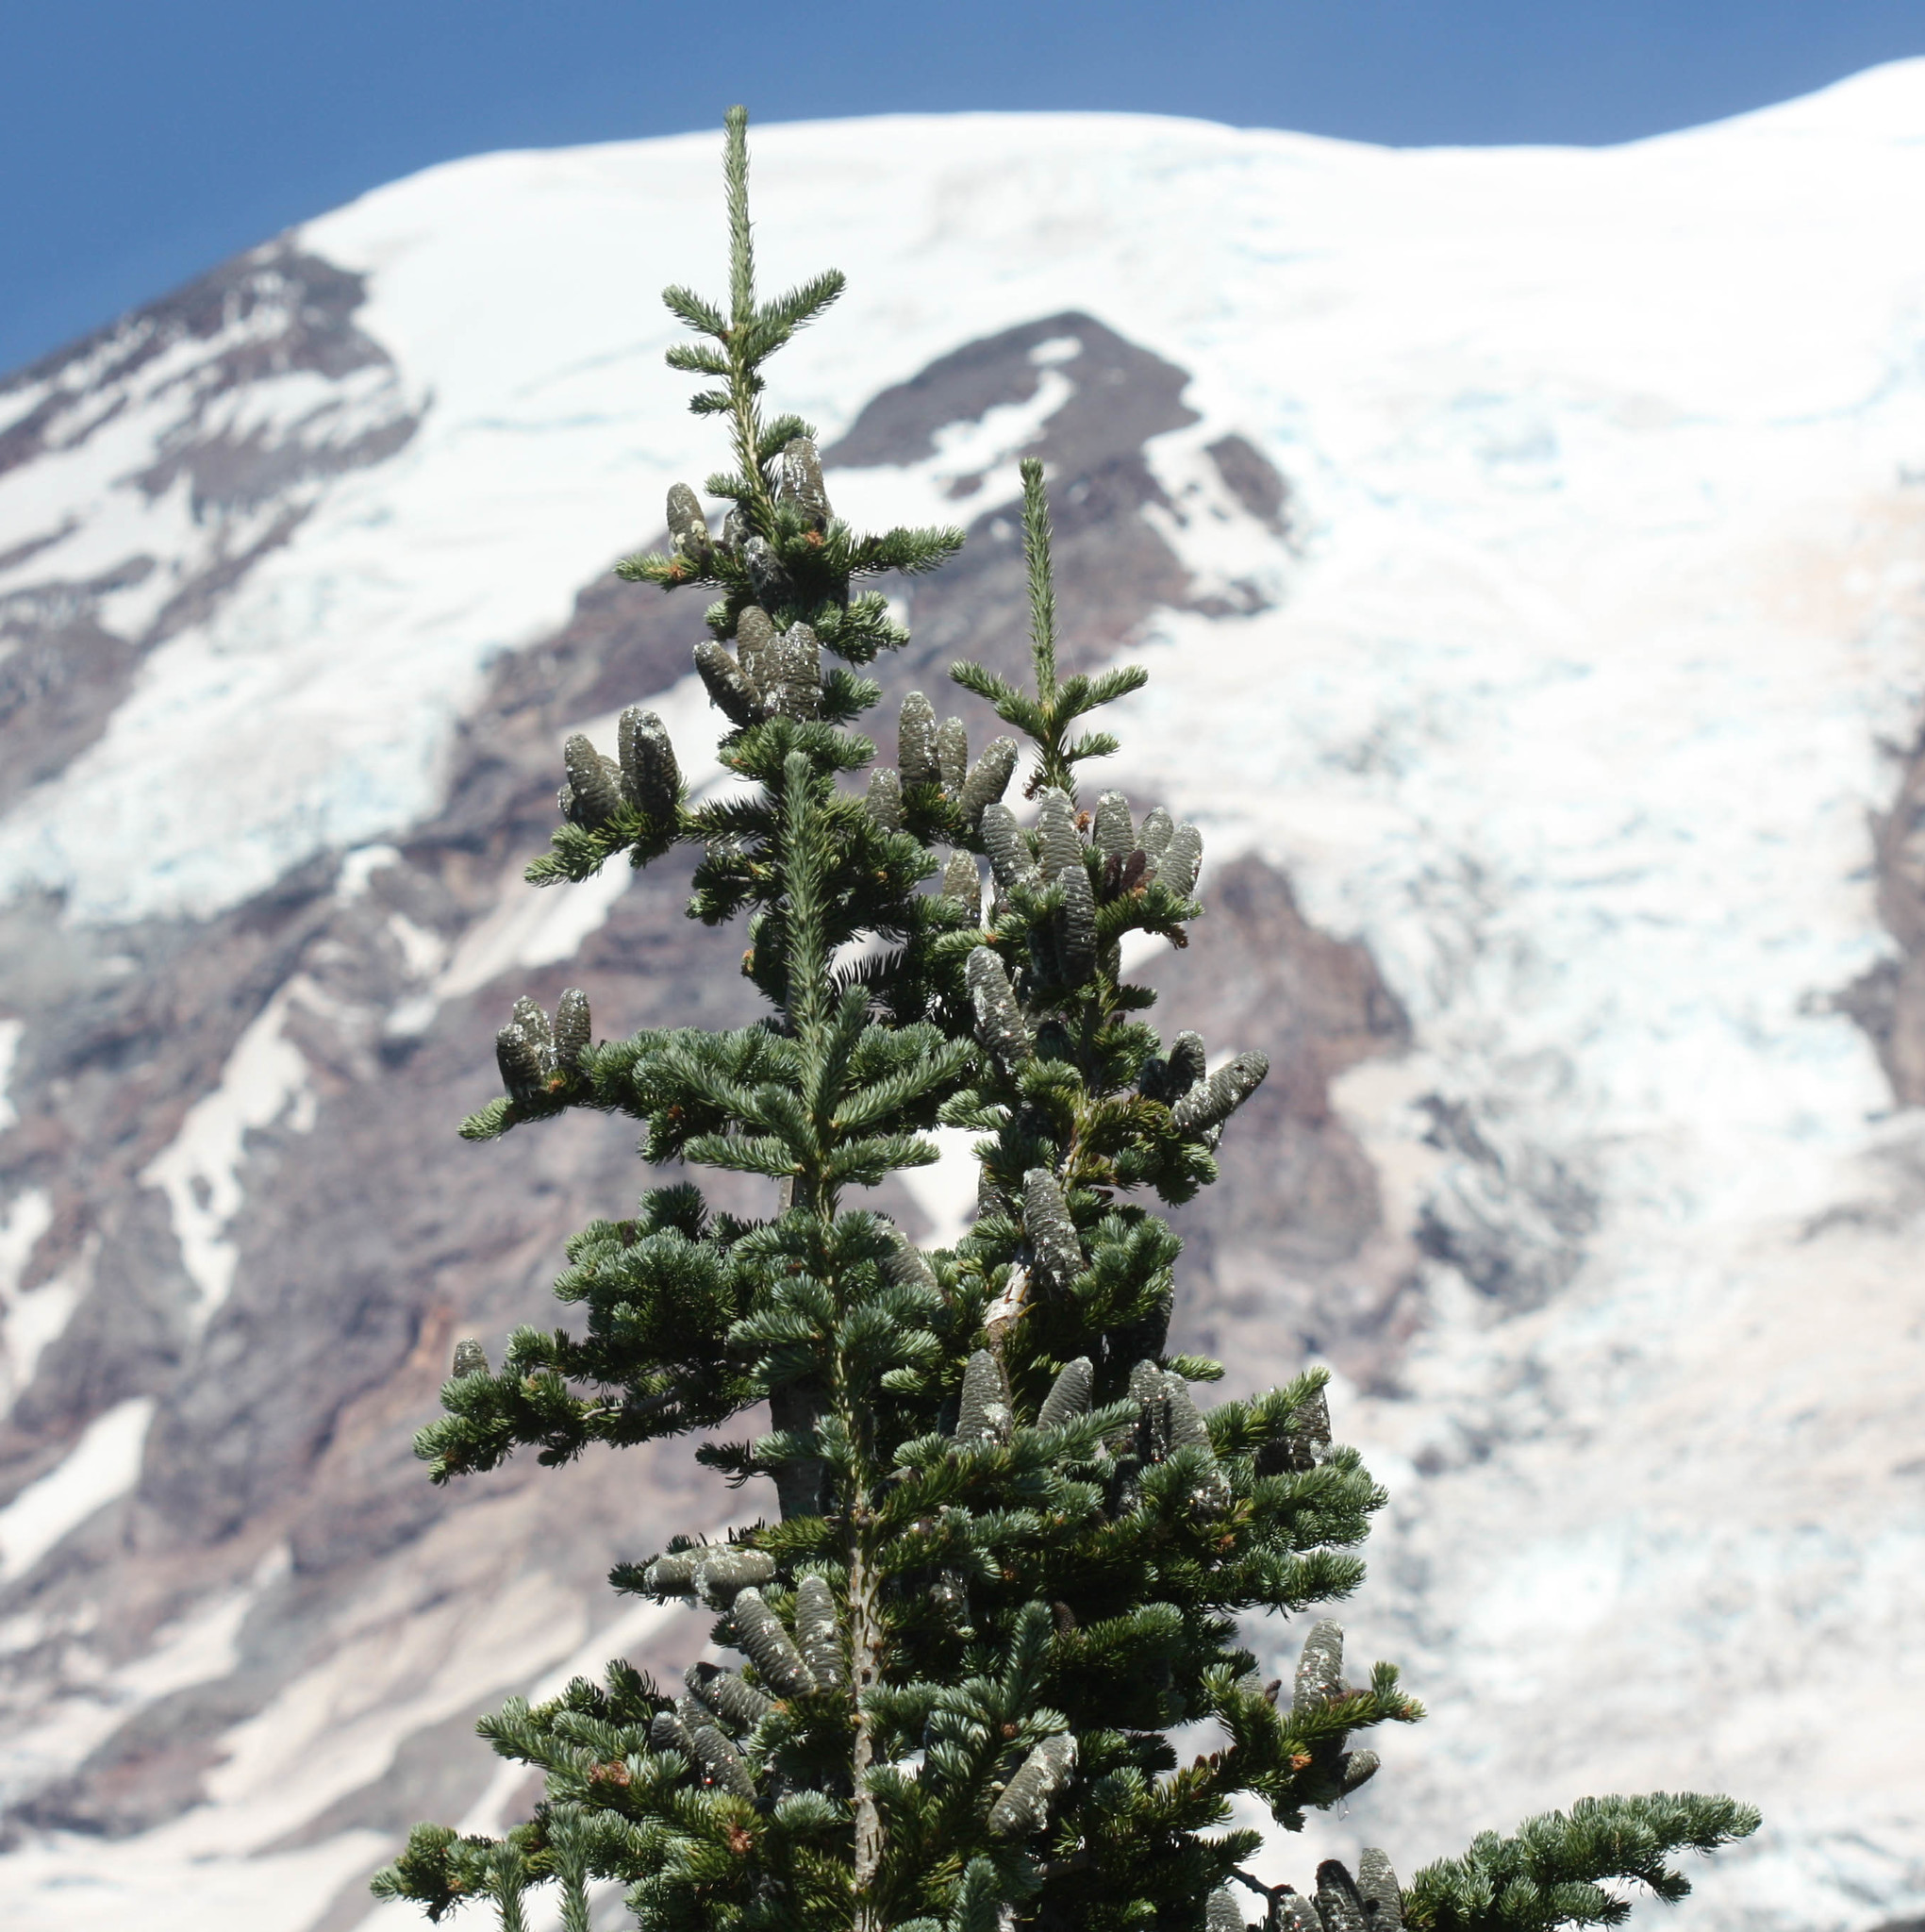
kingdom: Plantae
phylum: Tracheophyta
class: Pinopsida
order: Pinales
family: Pinaceae
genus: Abies
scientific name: Abies lasiocarpa
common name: Subalpine fir
